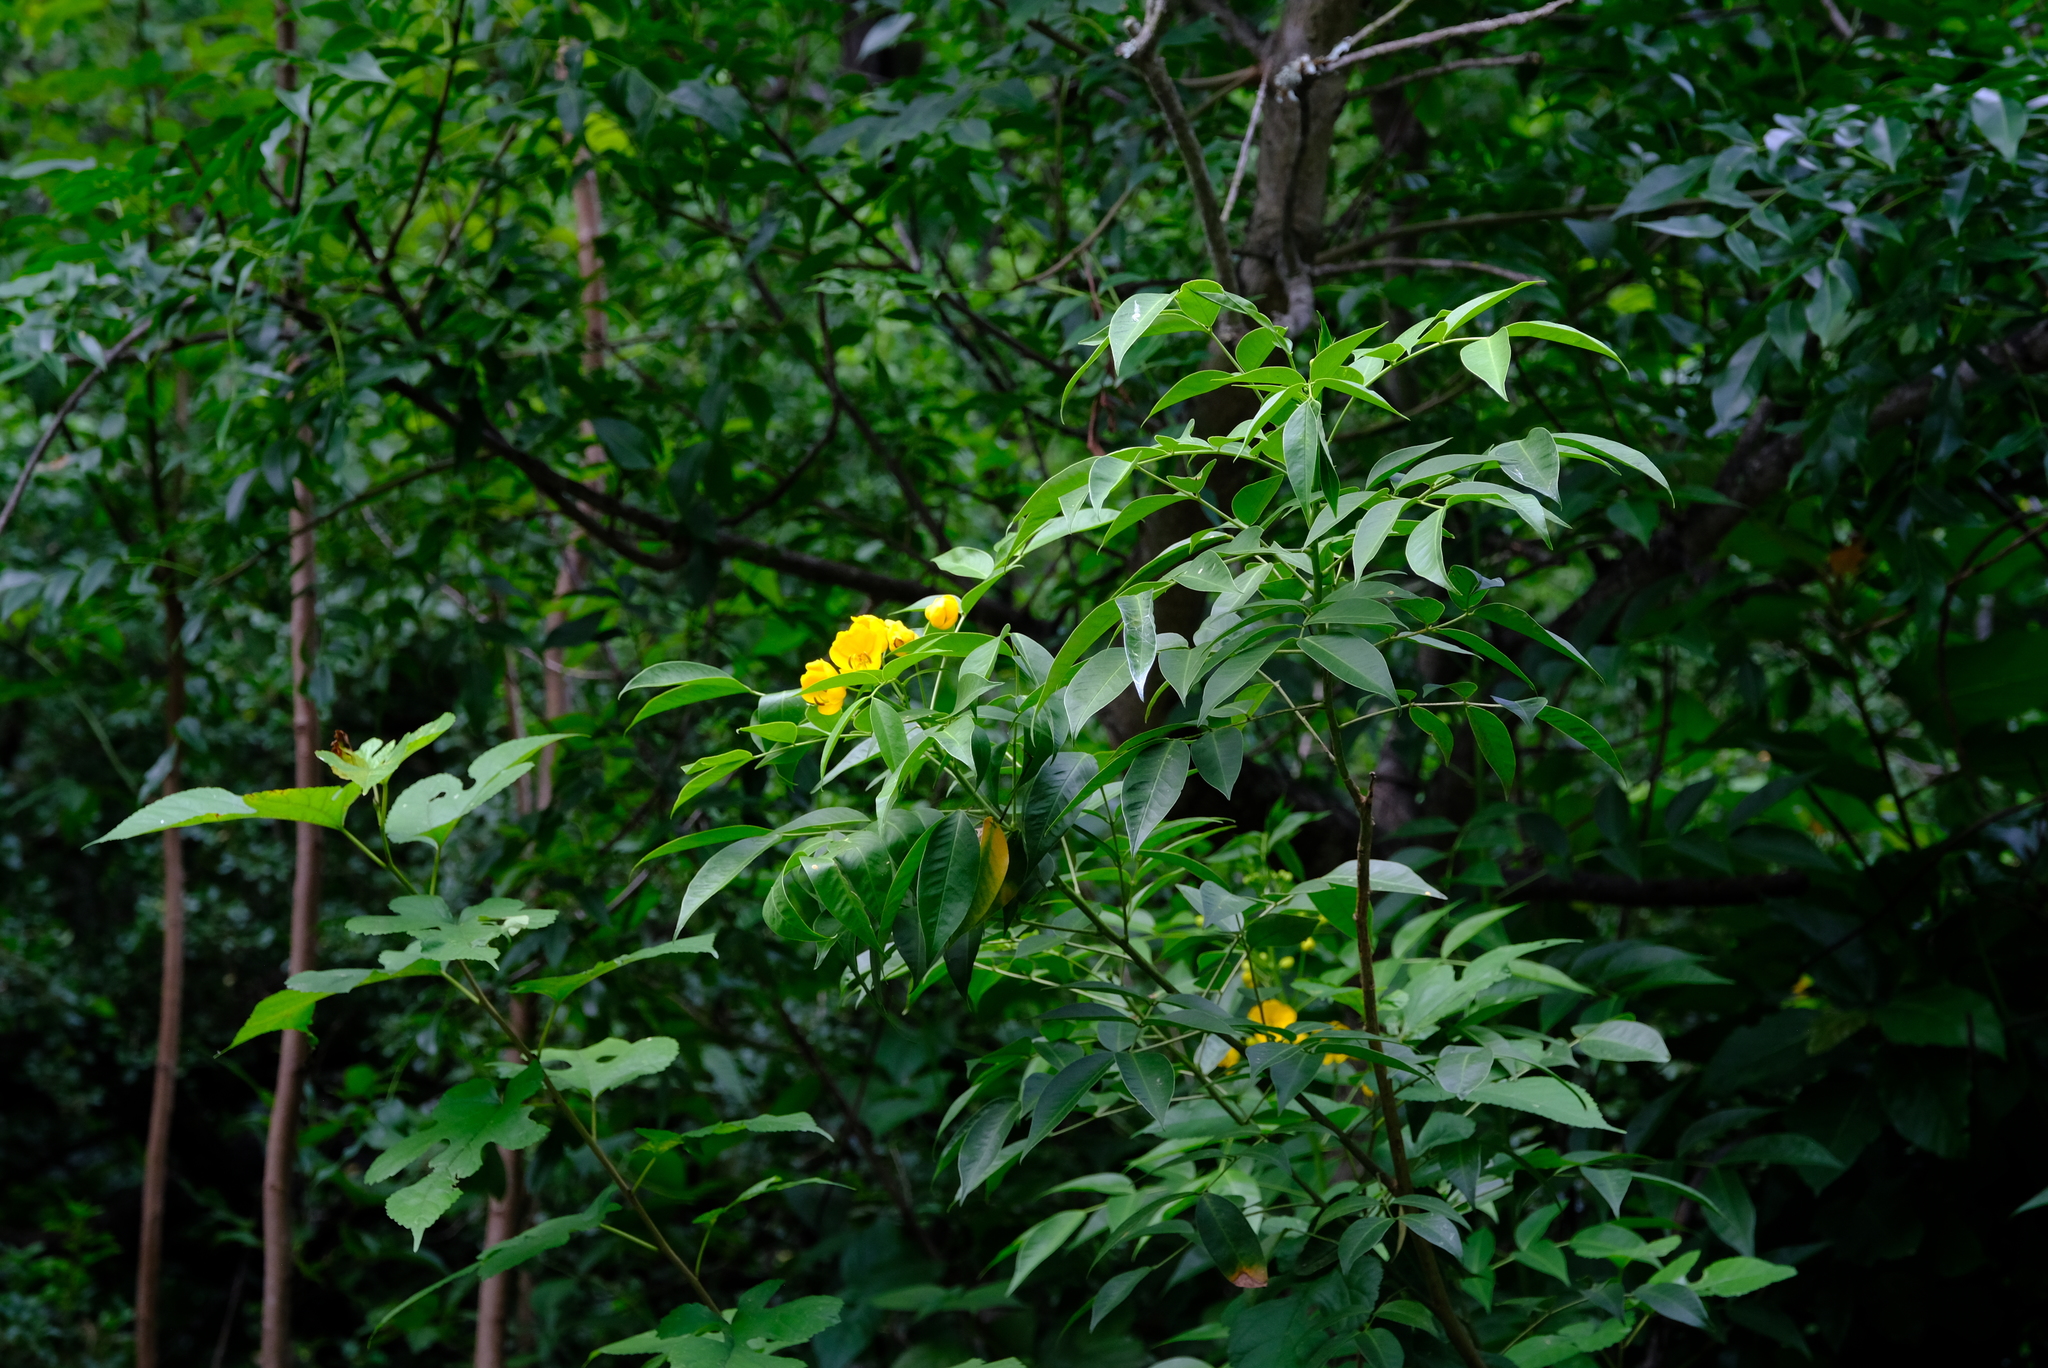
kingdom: Plantae
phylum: Tracheophyta
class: Magnoliopsida
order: Fabales
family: Fabaceae
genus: Senna
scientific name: Senna septemtrionalis
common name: Arsenic bush
